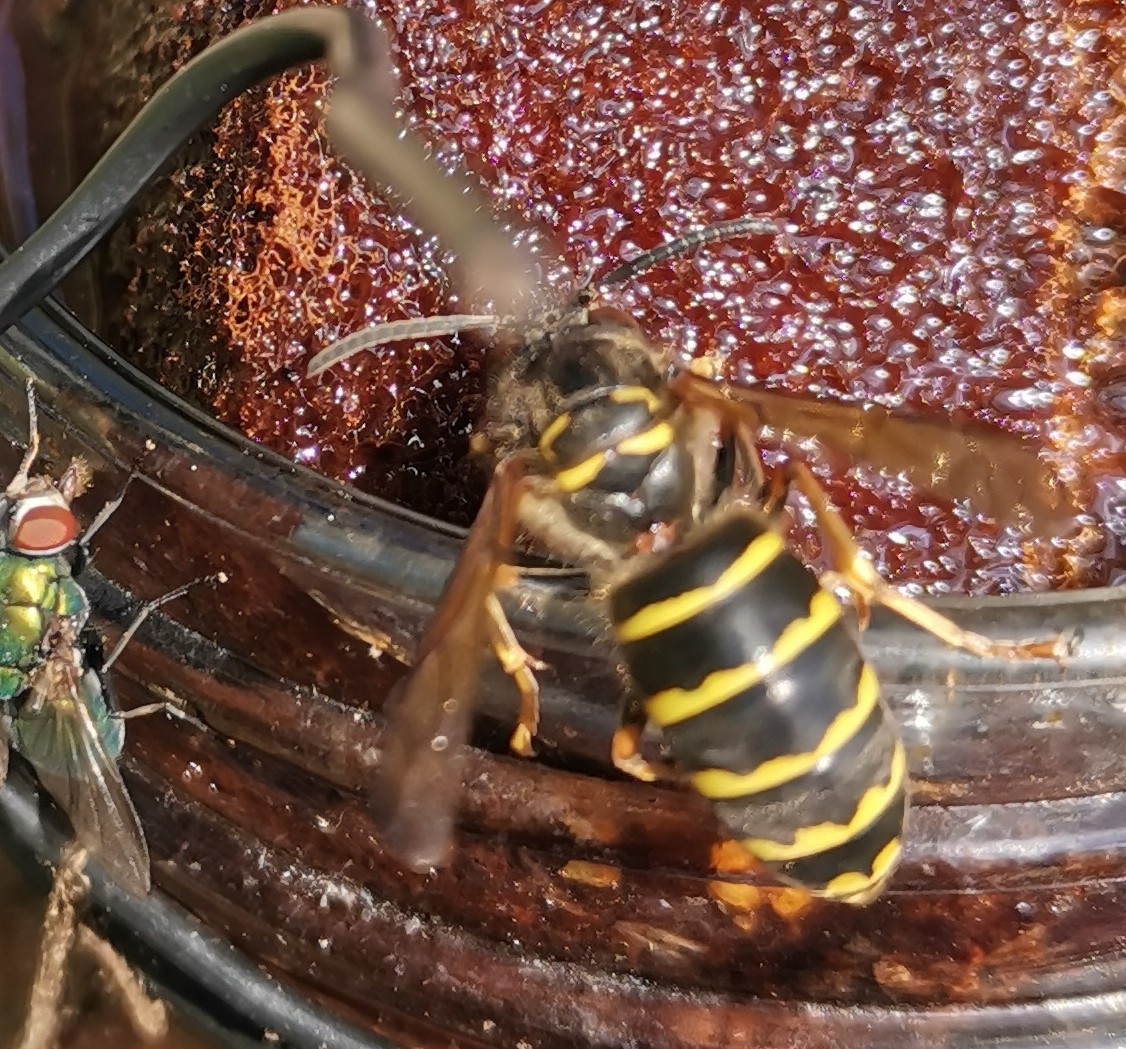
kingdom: Animalia
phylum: Arthropoda
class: Insecta
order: Hymenoptera
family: Vespidae
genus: Dolichovespula
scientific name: Dolichovespula media
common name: Median wasp
